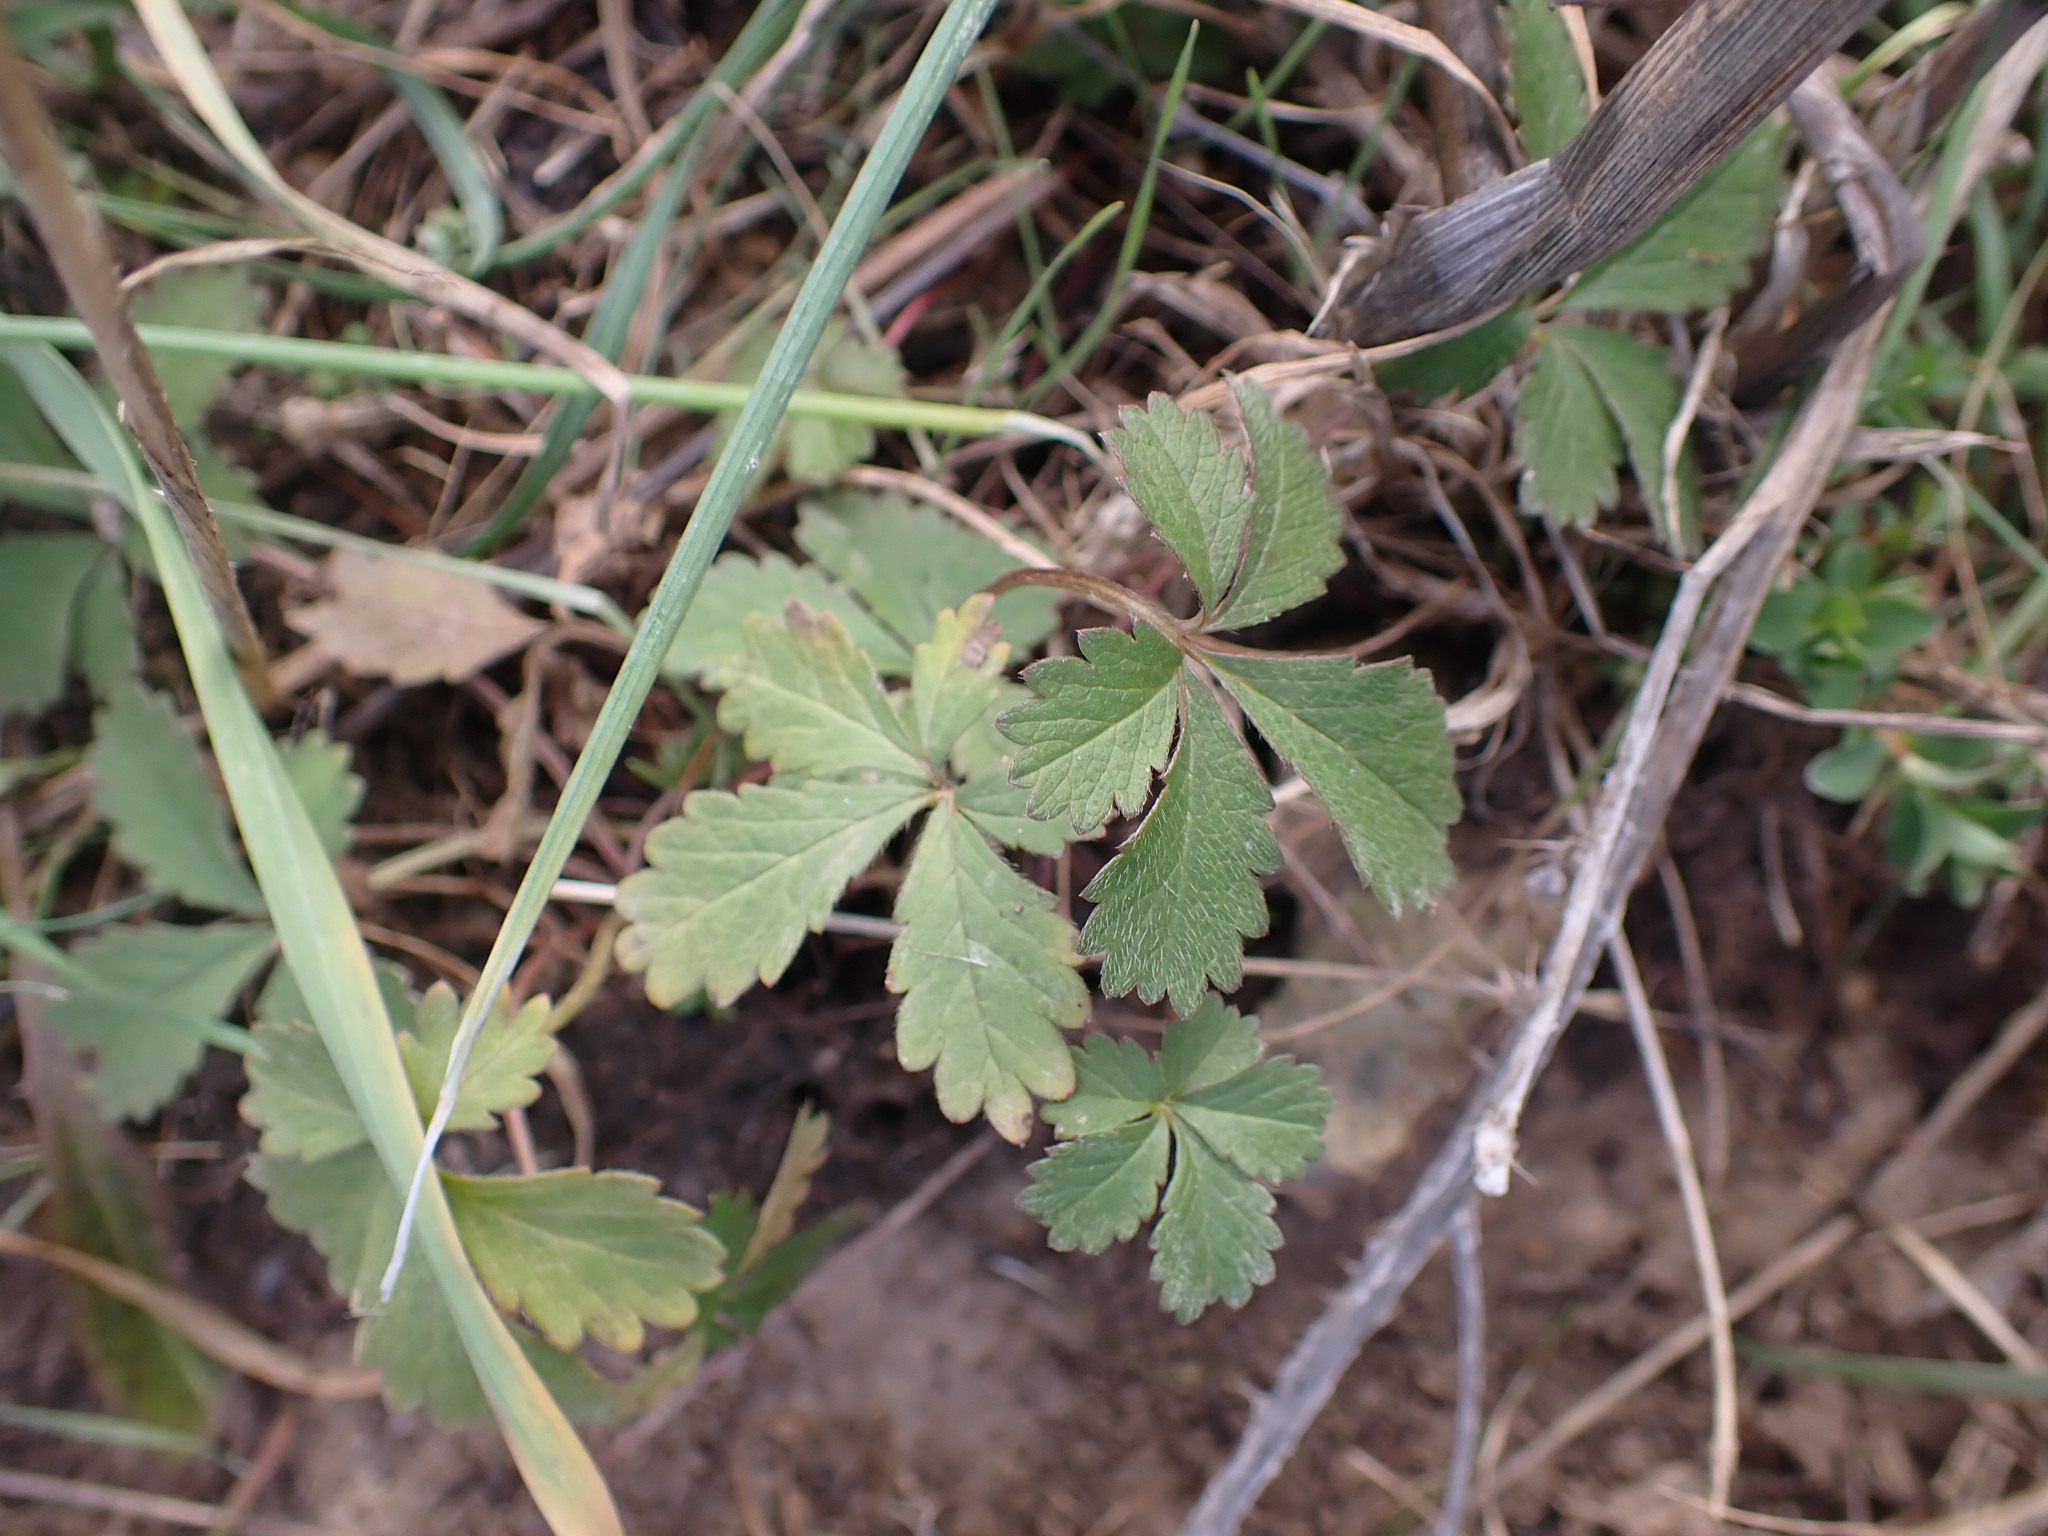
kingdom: Plantae
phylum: Tracheophyta
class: Magnoliopsida
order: Rosales
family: Rosaceae
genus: Potentilla
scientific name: Potentilla reptans
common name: Creeping cinquefoil
